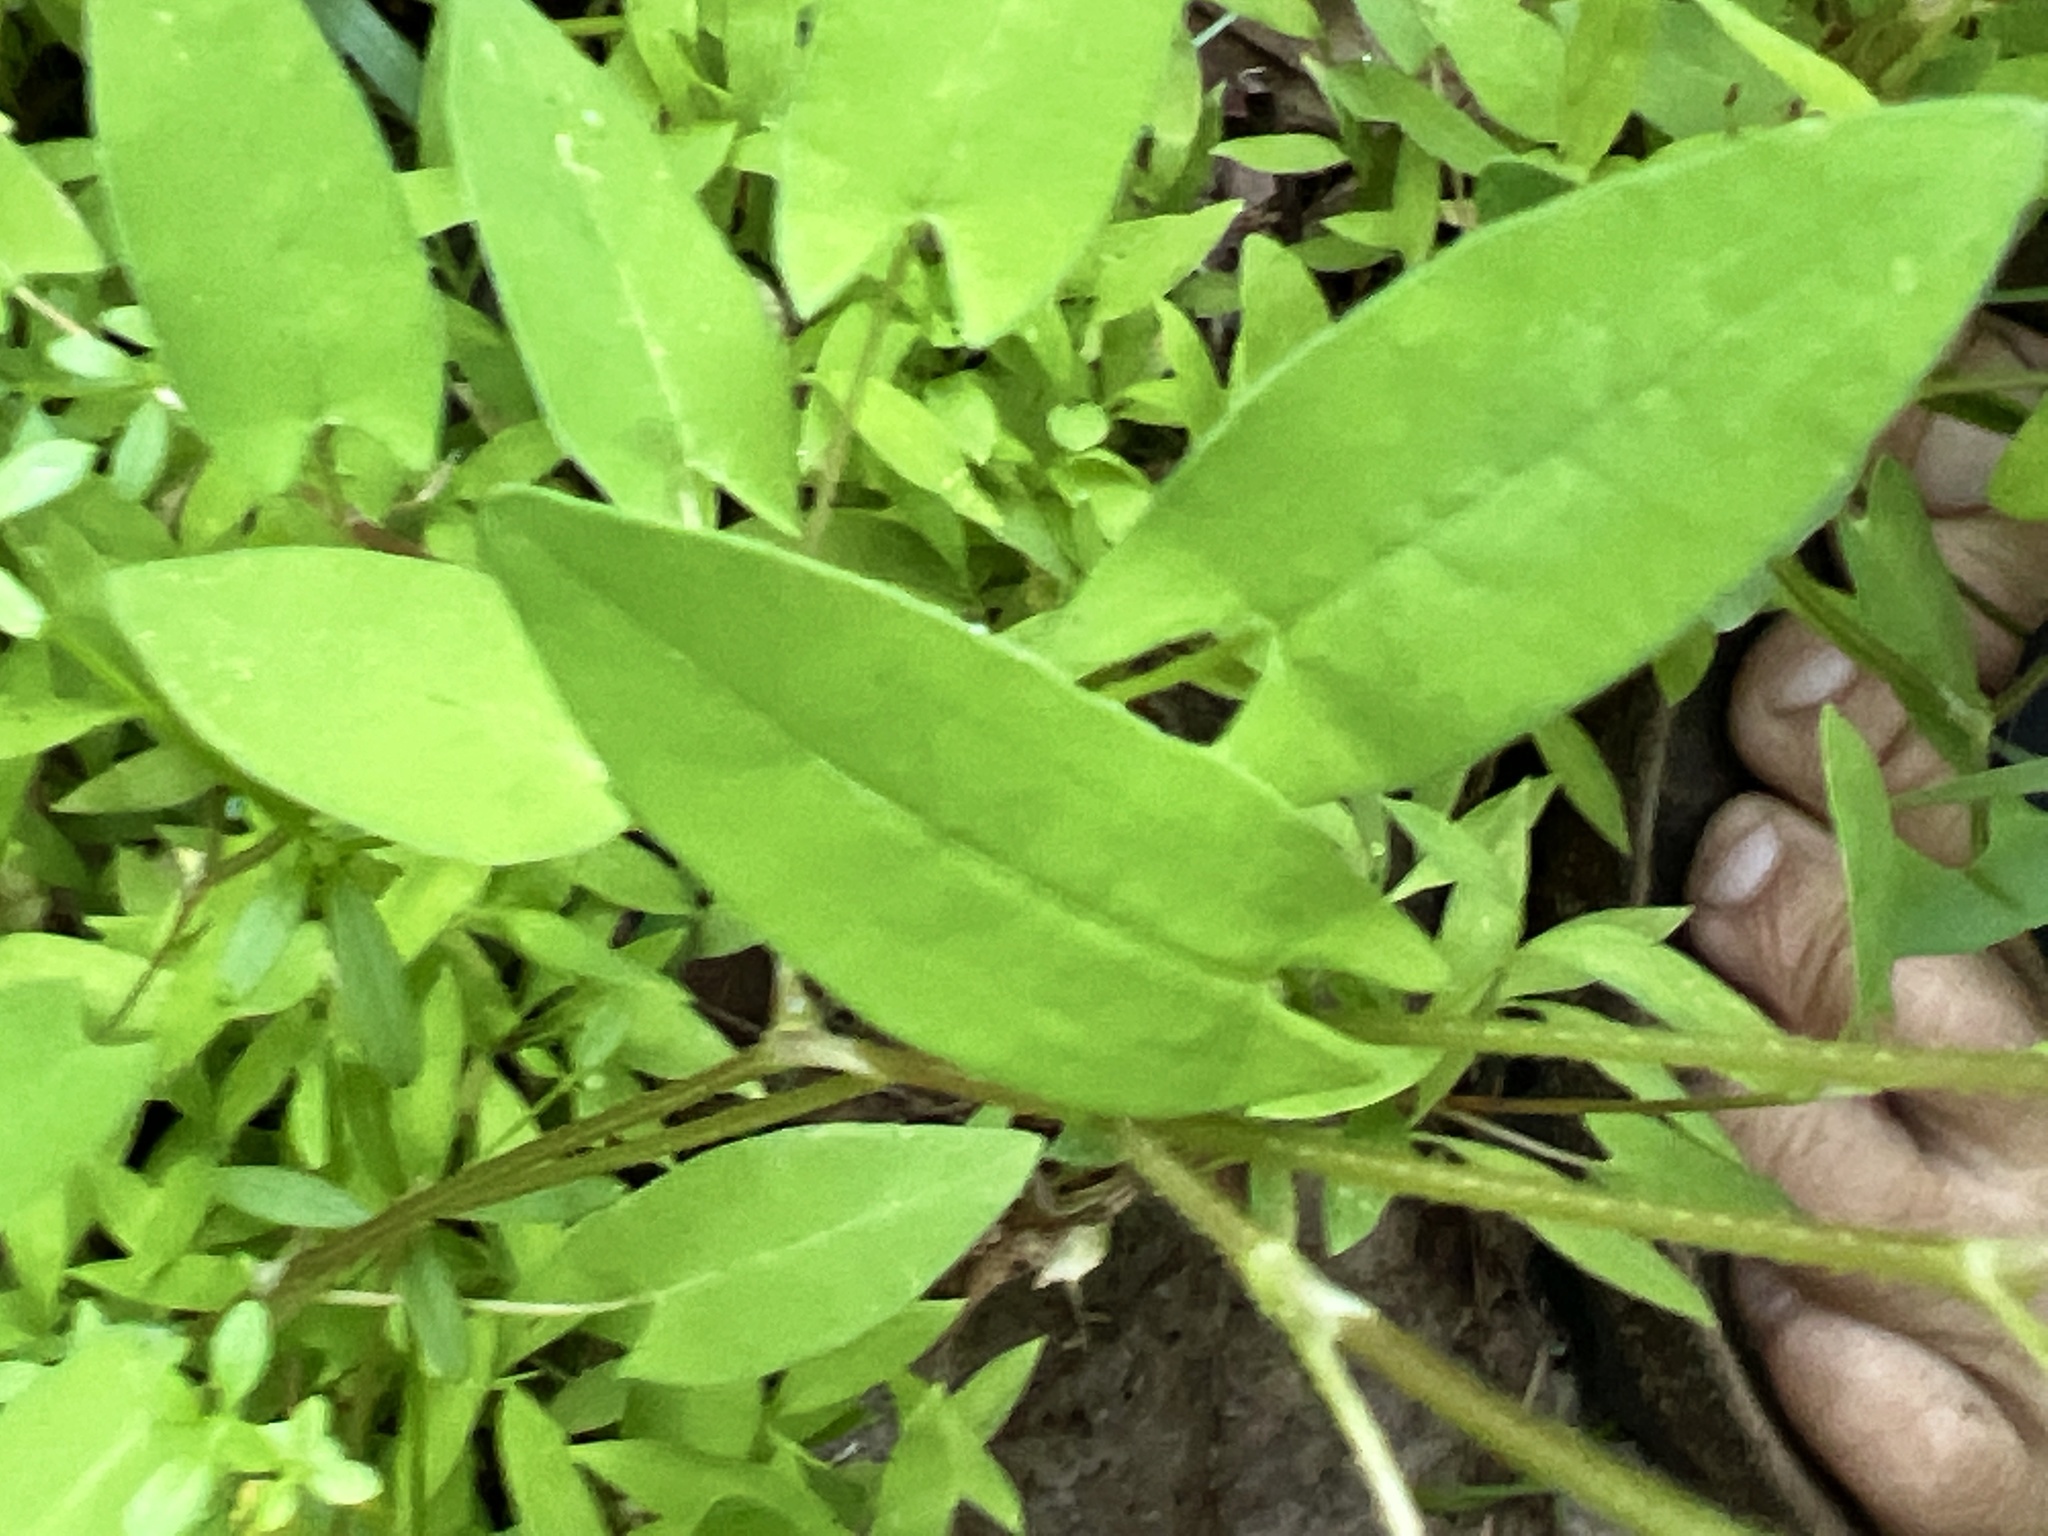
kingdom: Plantae
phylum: Tracheophyta
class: Magnoliopsida
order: Caryophyllales
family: Polygonaceae
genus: Persicaria
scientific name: Persicaria sagittata
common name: American tearthumb
